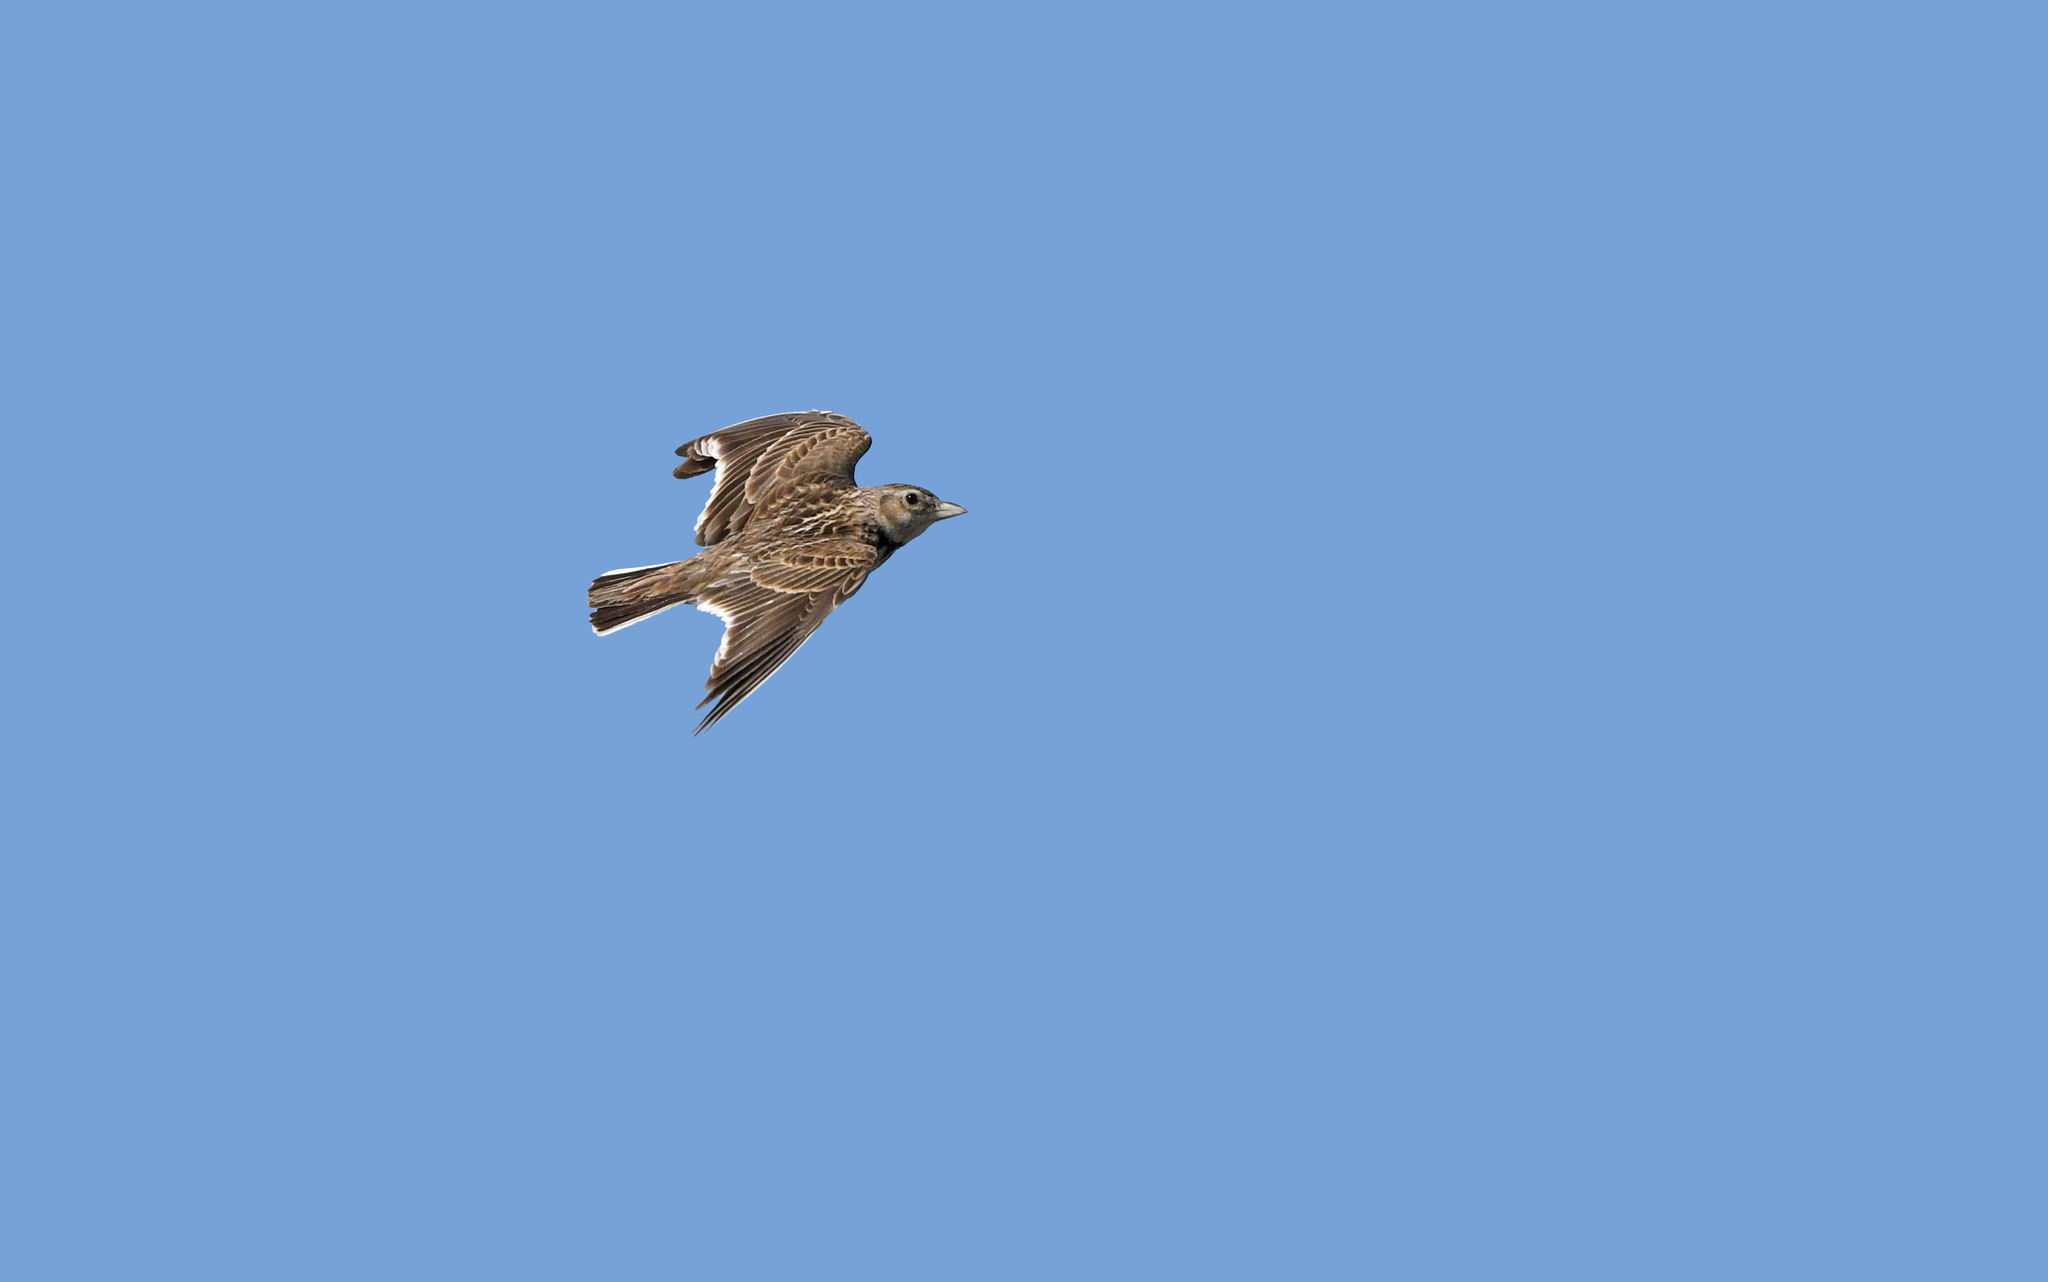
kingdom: Animalia
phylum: Chordata
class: Aves
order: Passeriformes
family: Alaudidae
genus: Melanocorypha
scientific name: Melanocorypha calandra
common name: Calandra lark
